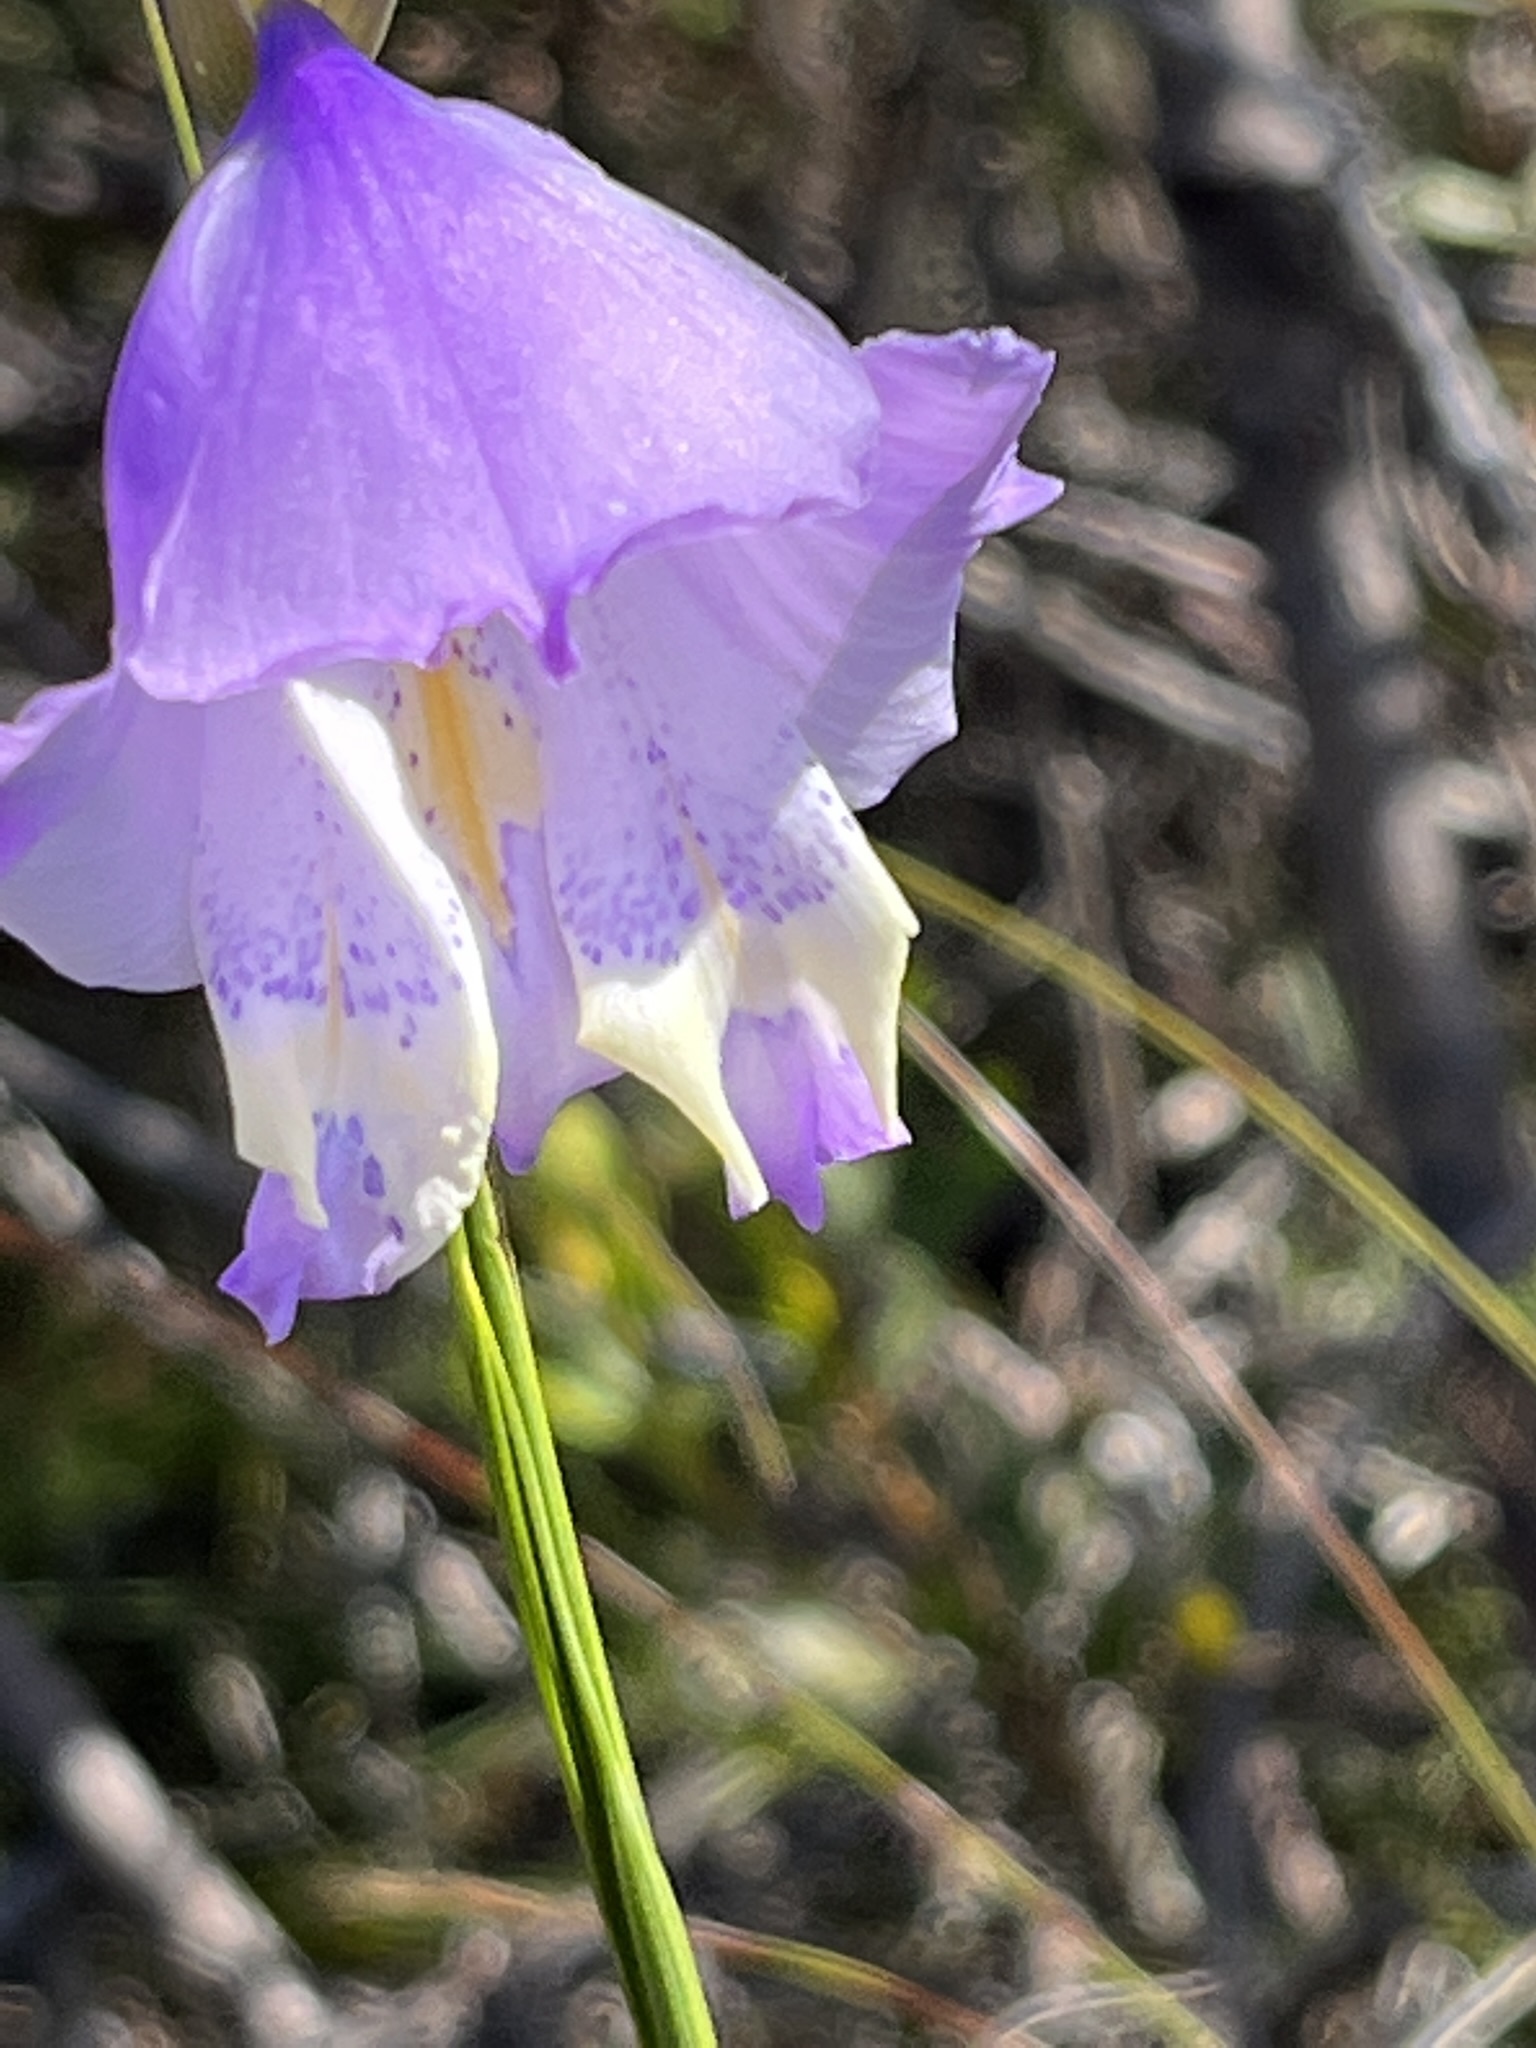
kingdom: Plantae
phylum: Tracheophyta
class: Liliopsida
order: Asparagales
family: Iridaceae
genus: Gladiolus
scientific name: Gladiolus bullatus
